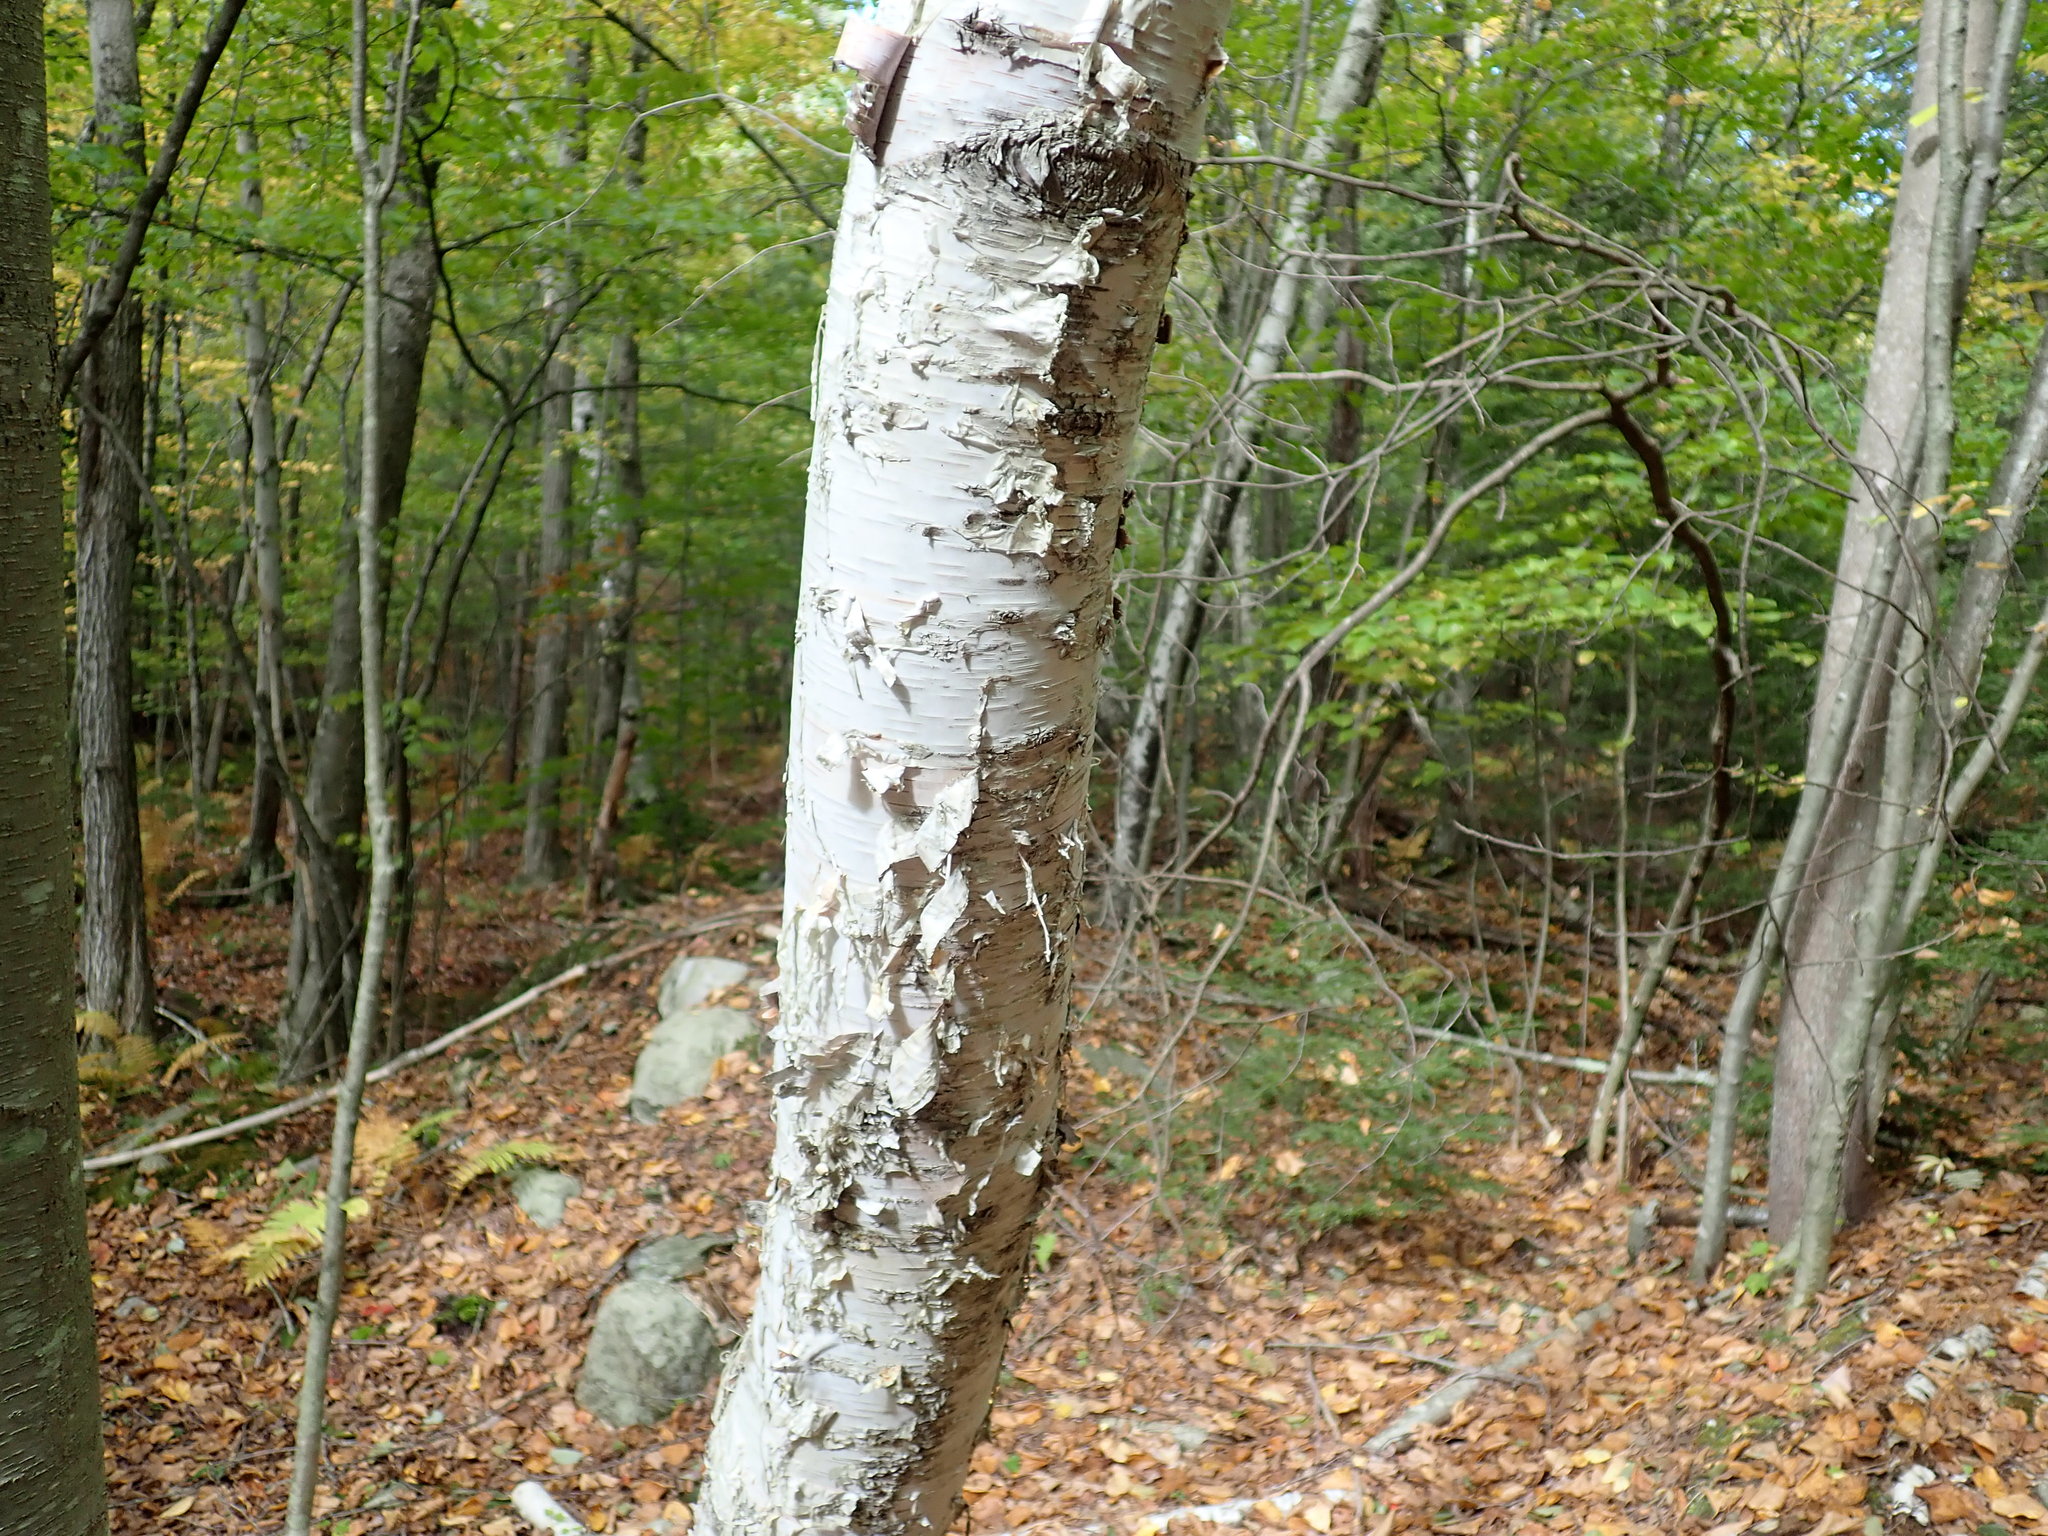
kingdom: Plantae
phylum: Tracheophyta
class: Magnoliopsida
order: Fagales
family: Betulaceae
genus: Betula
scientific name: Betula papyrifera
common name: Paper birch
